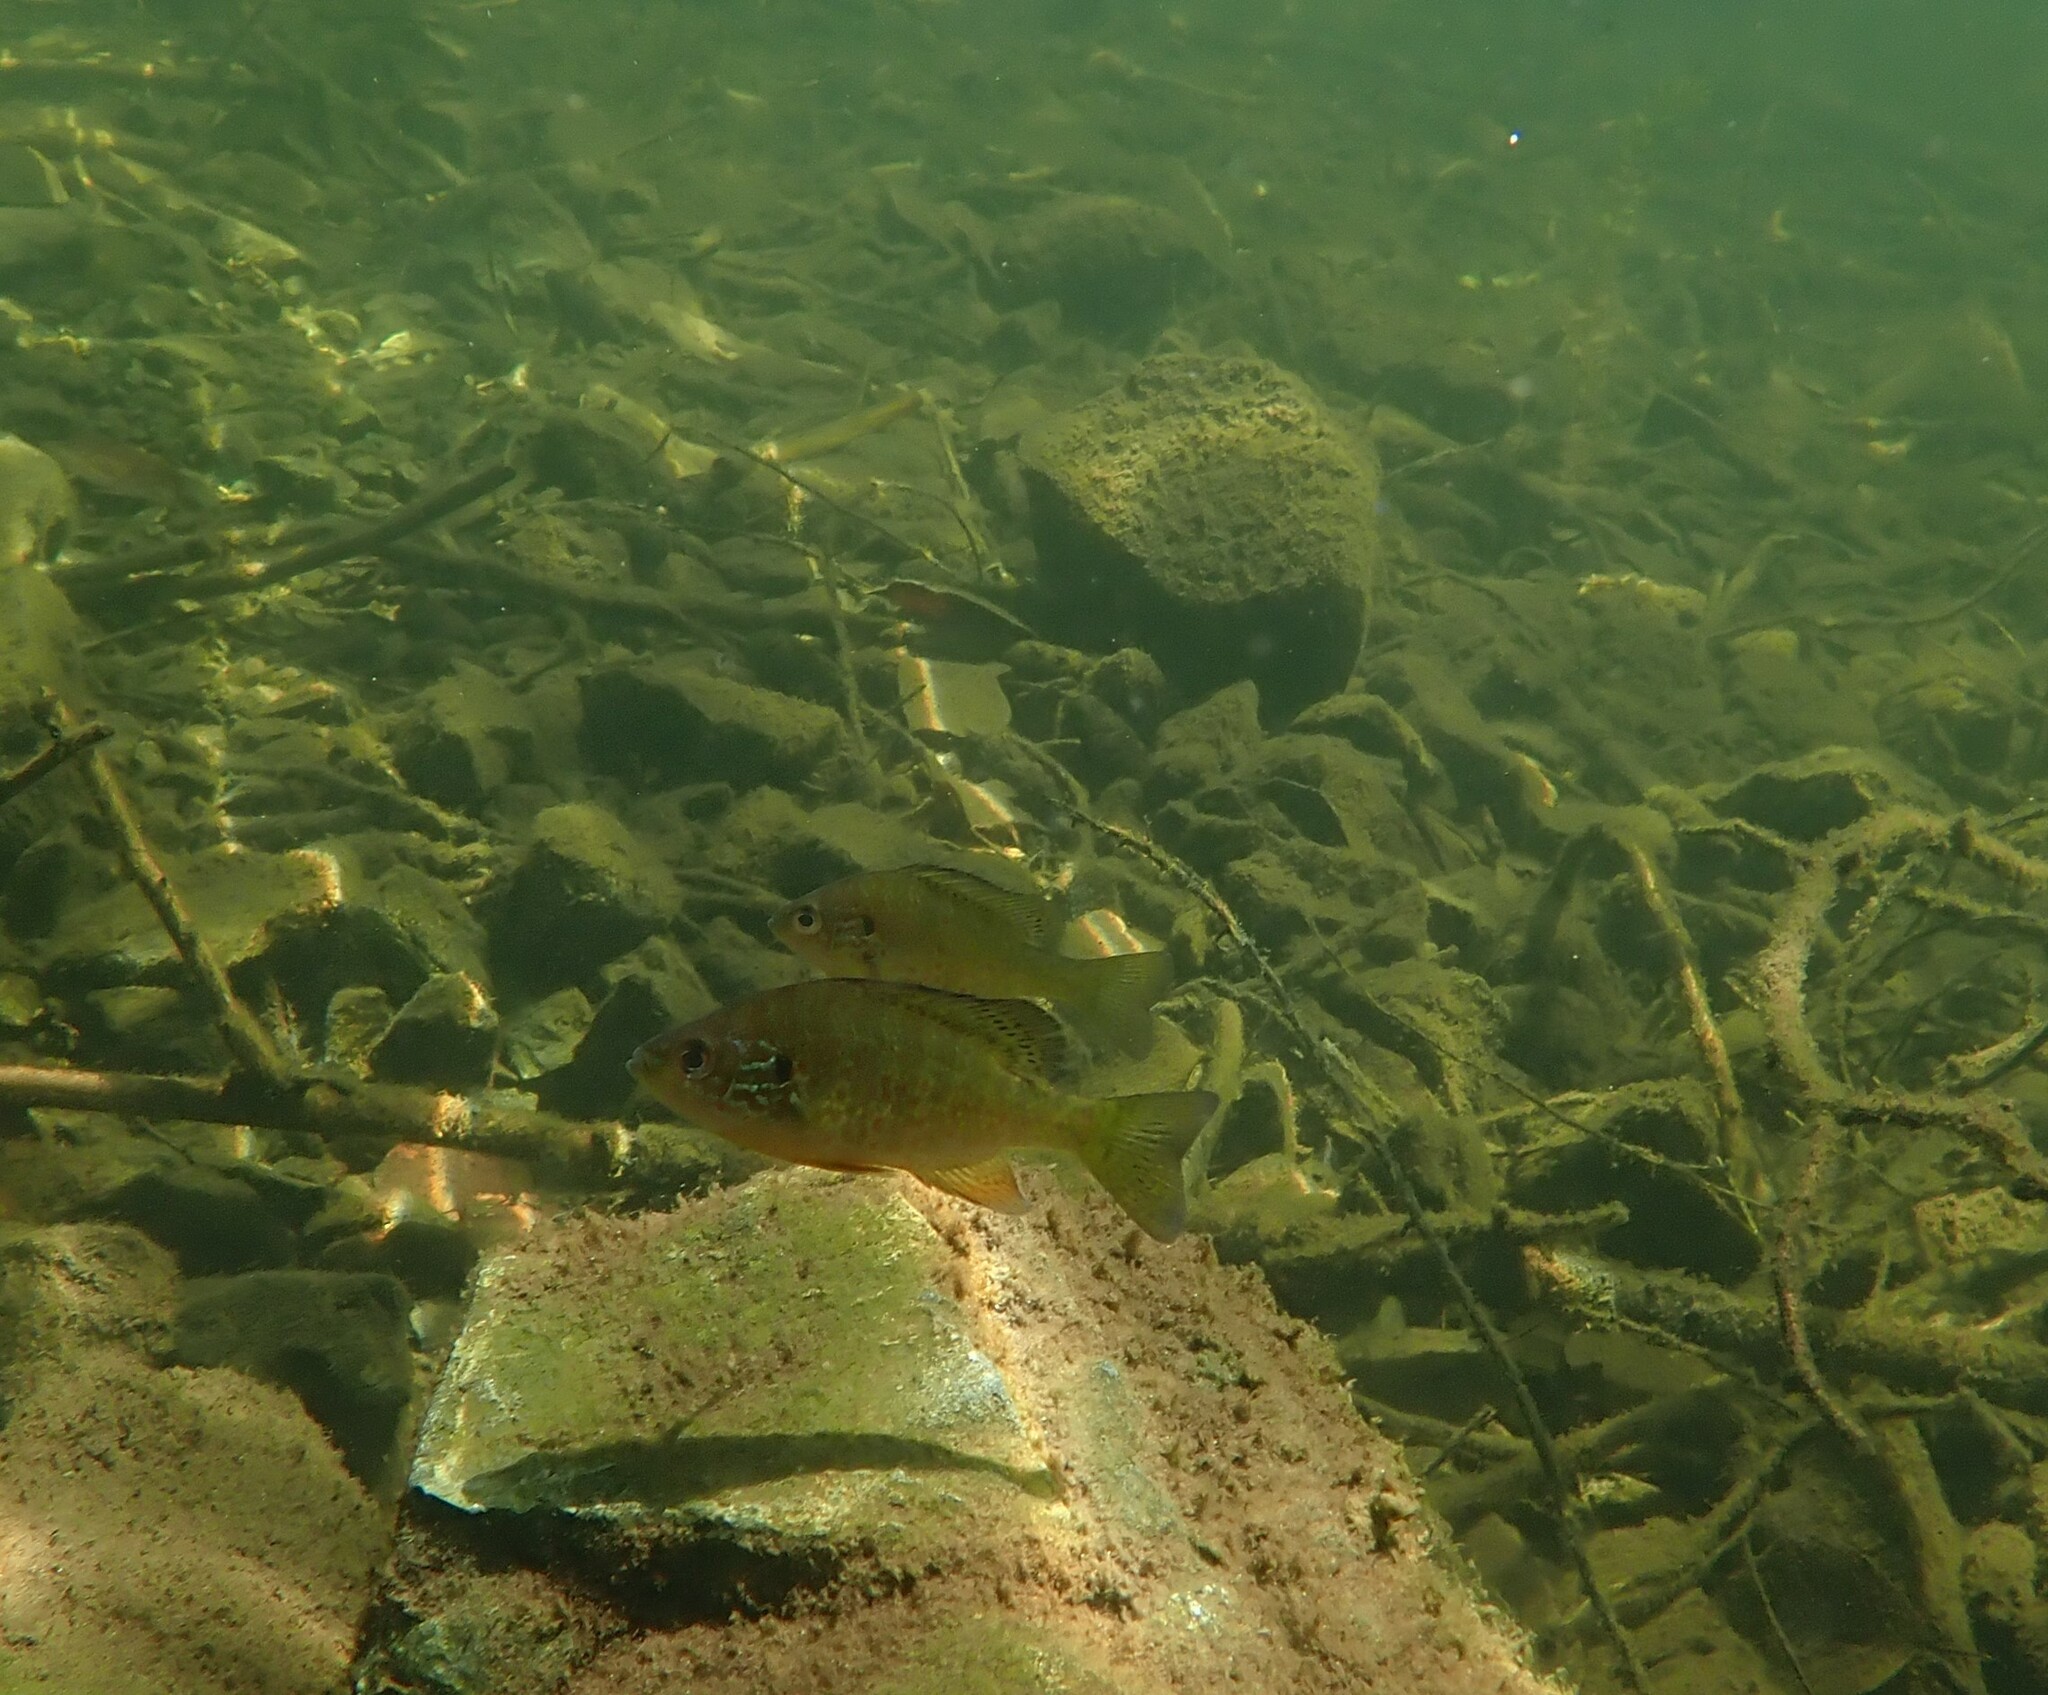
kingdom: Animalia
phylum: Chordata
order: Perciformes
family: Centrarchidae
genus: Lepomis
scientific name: Lepomis gibbosus
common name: Pumpkinseed
